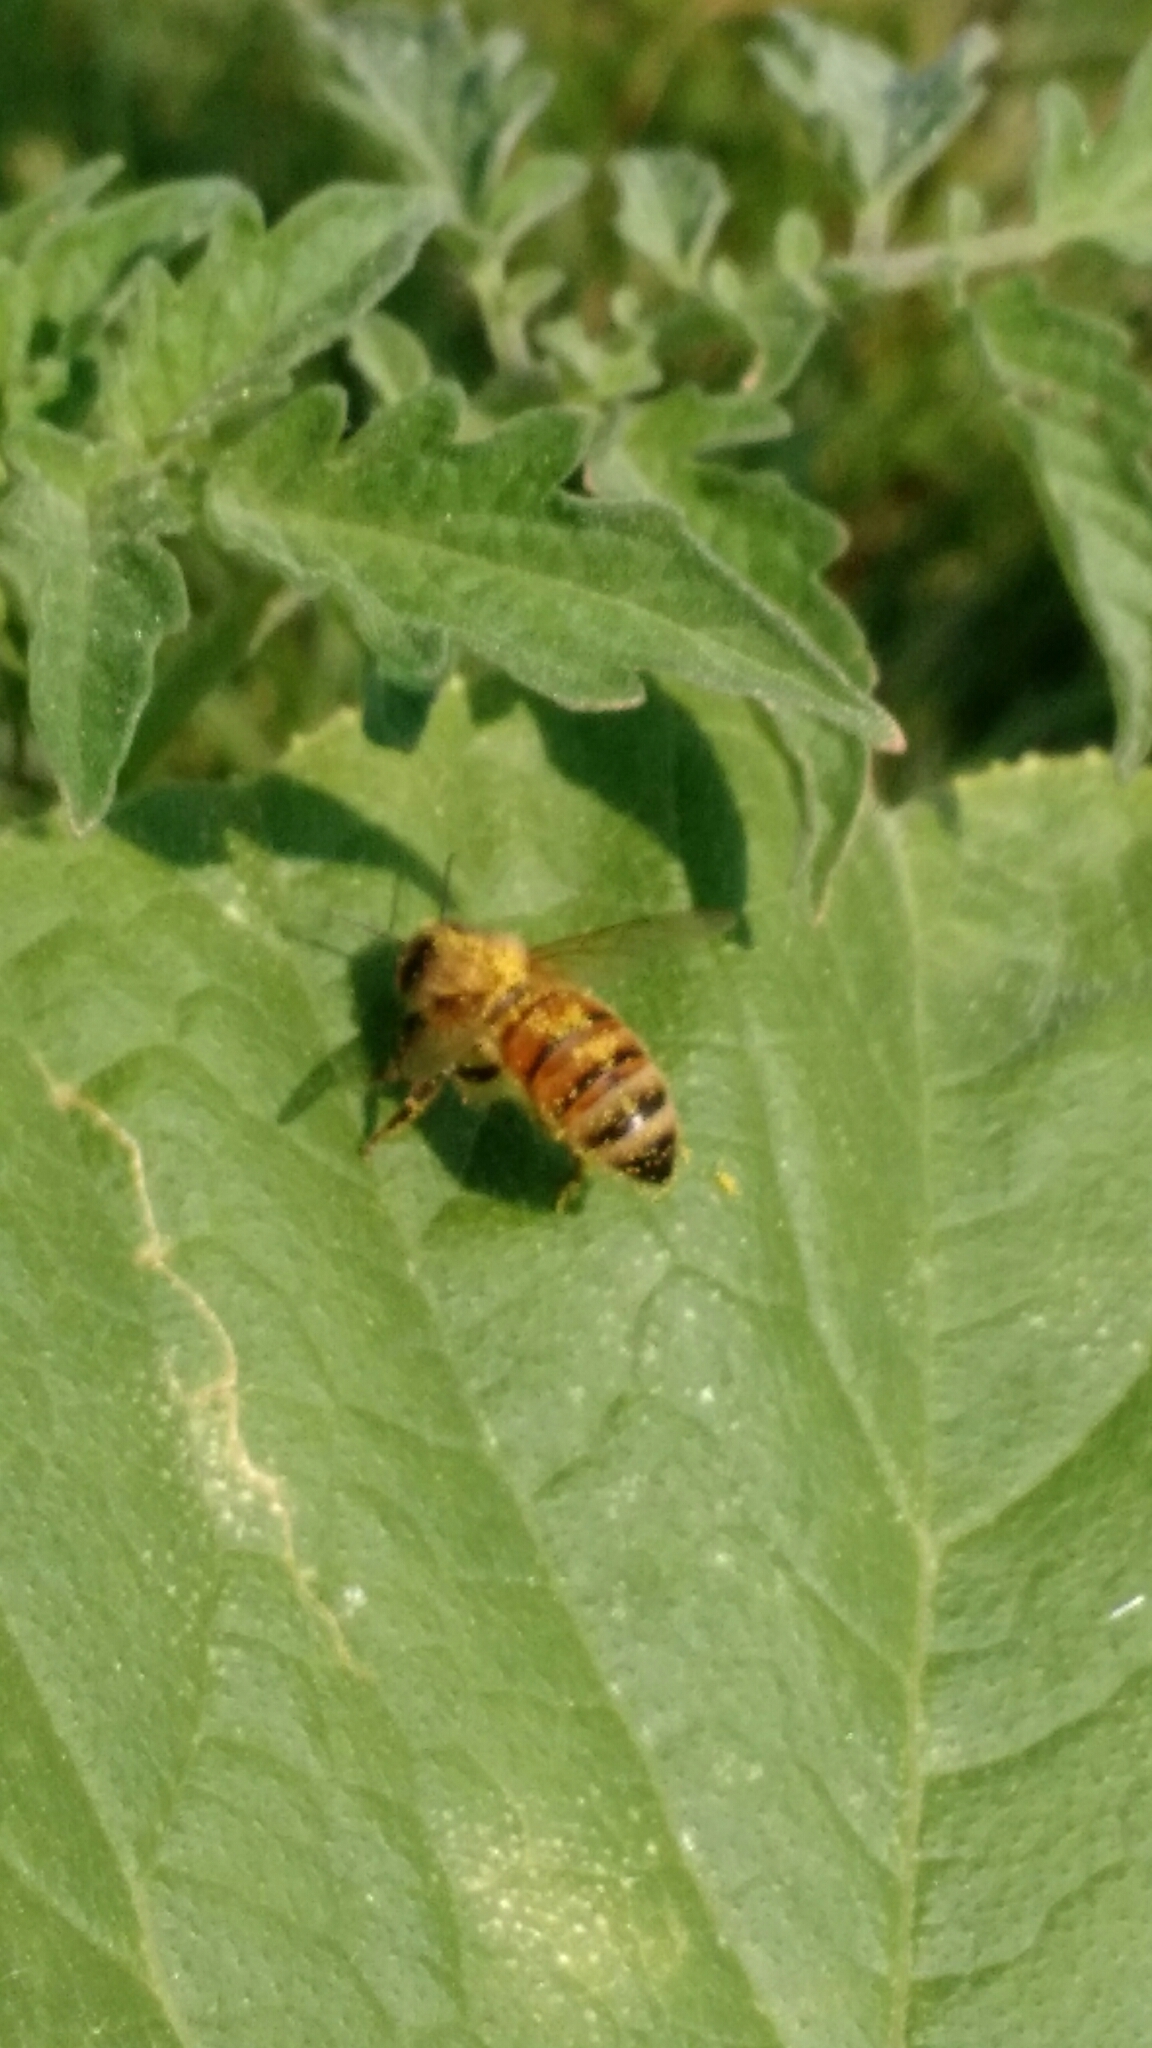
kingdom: Animalia
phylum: Arthropoda
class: Insecta
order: Hymenoptera
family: Apidae
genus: Apis
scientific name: Apis mellifera
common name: Honey bee
